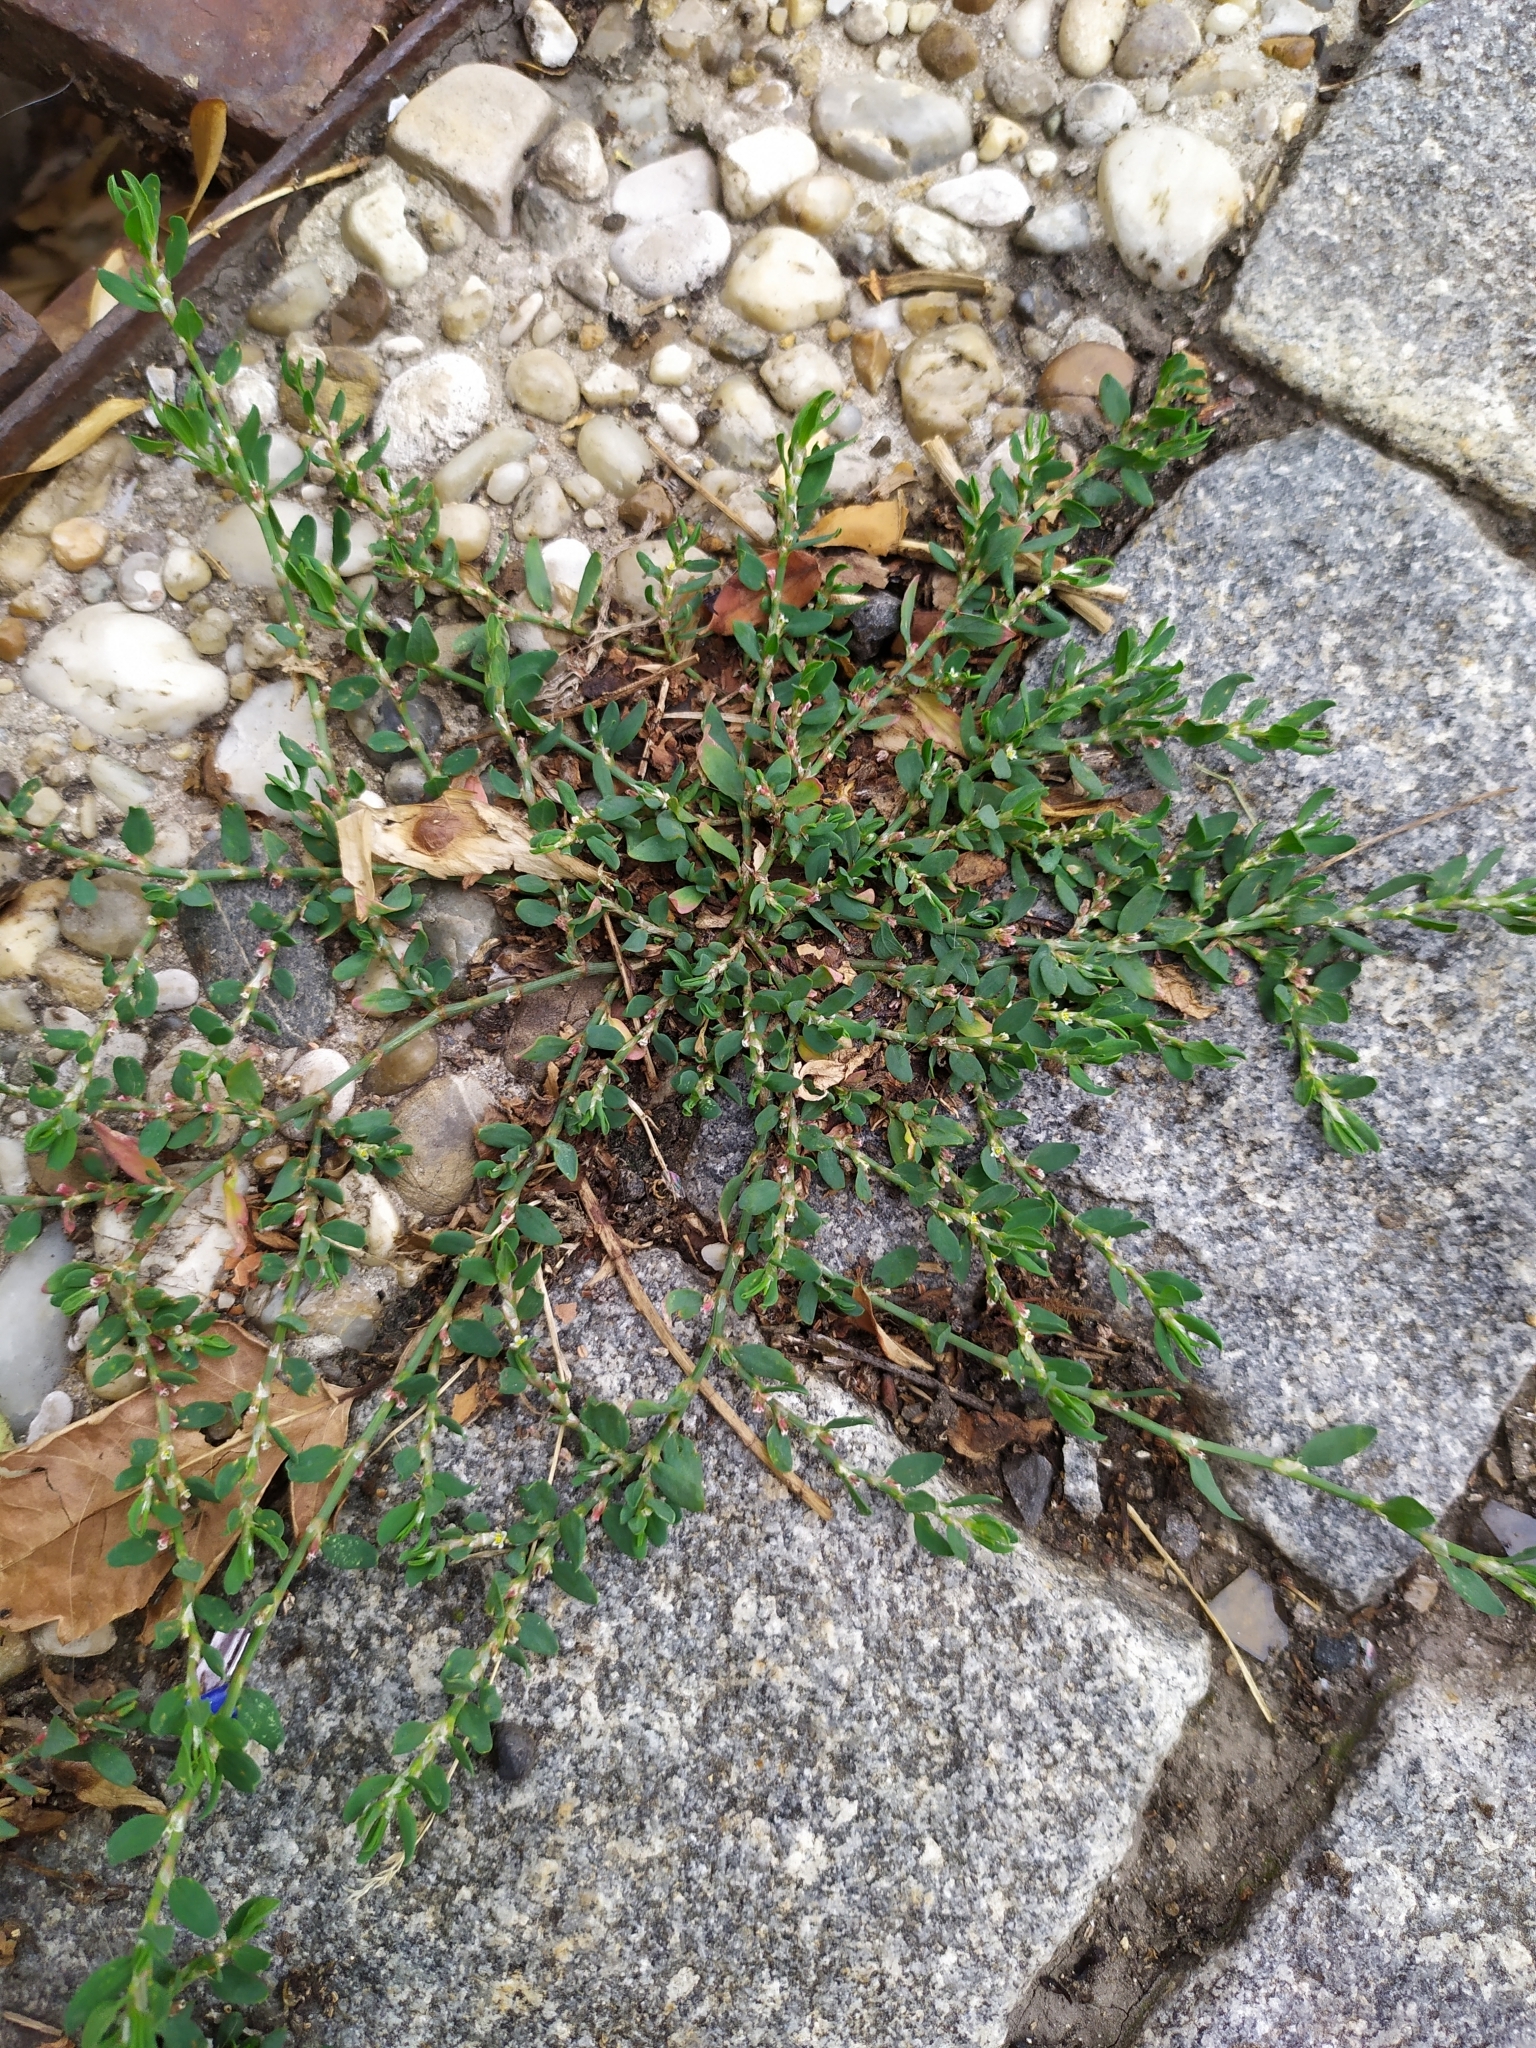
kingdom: Plantae
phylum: Tracheophyta
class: Magnoliopsida
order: Caryophyllales
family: Polygonaceae
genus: Polygonum
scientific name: Polygonum arenastrum
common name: Equal-leaved knotgrass
